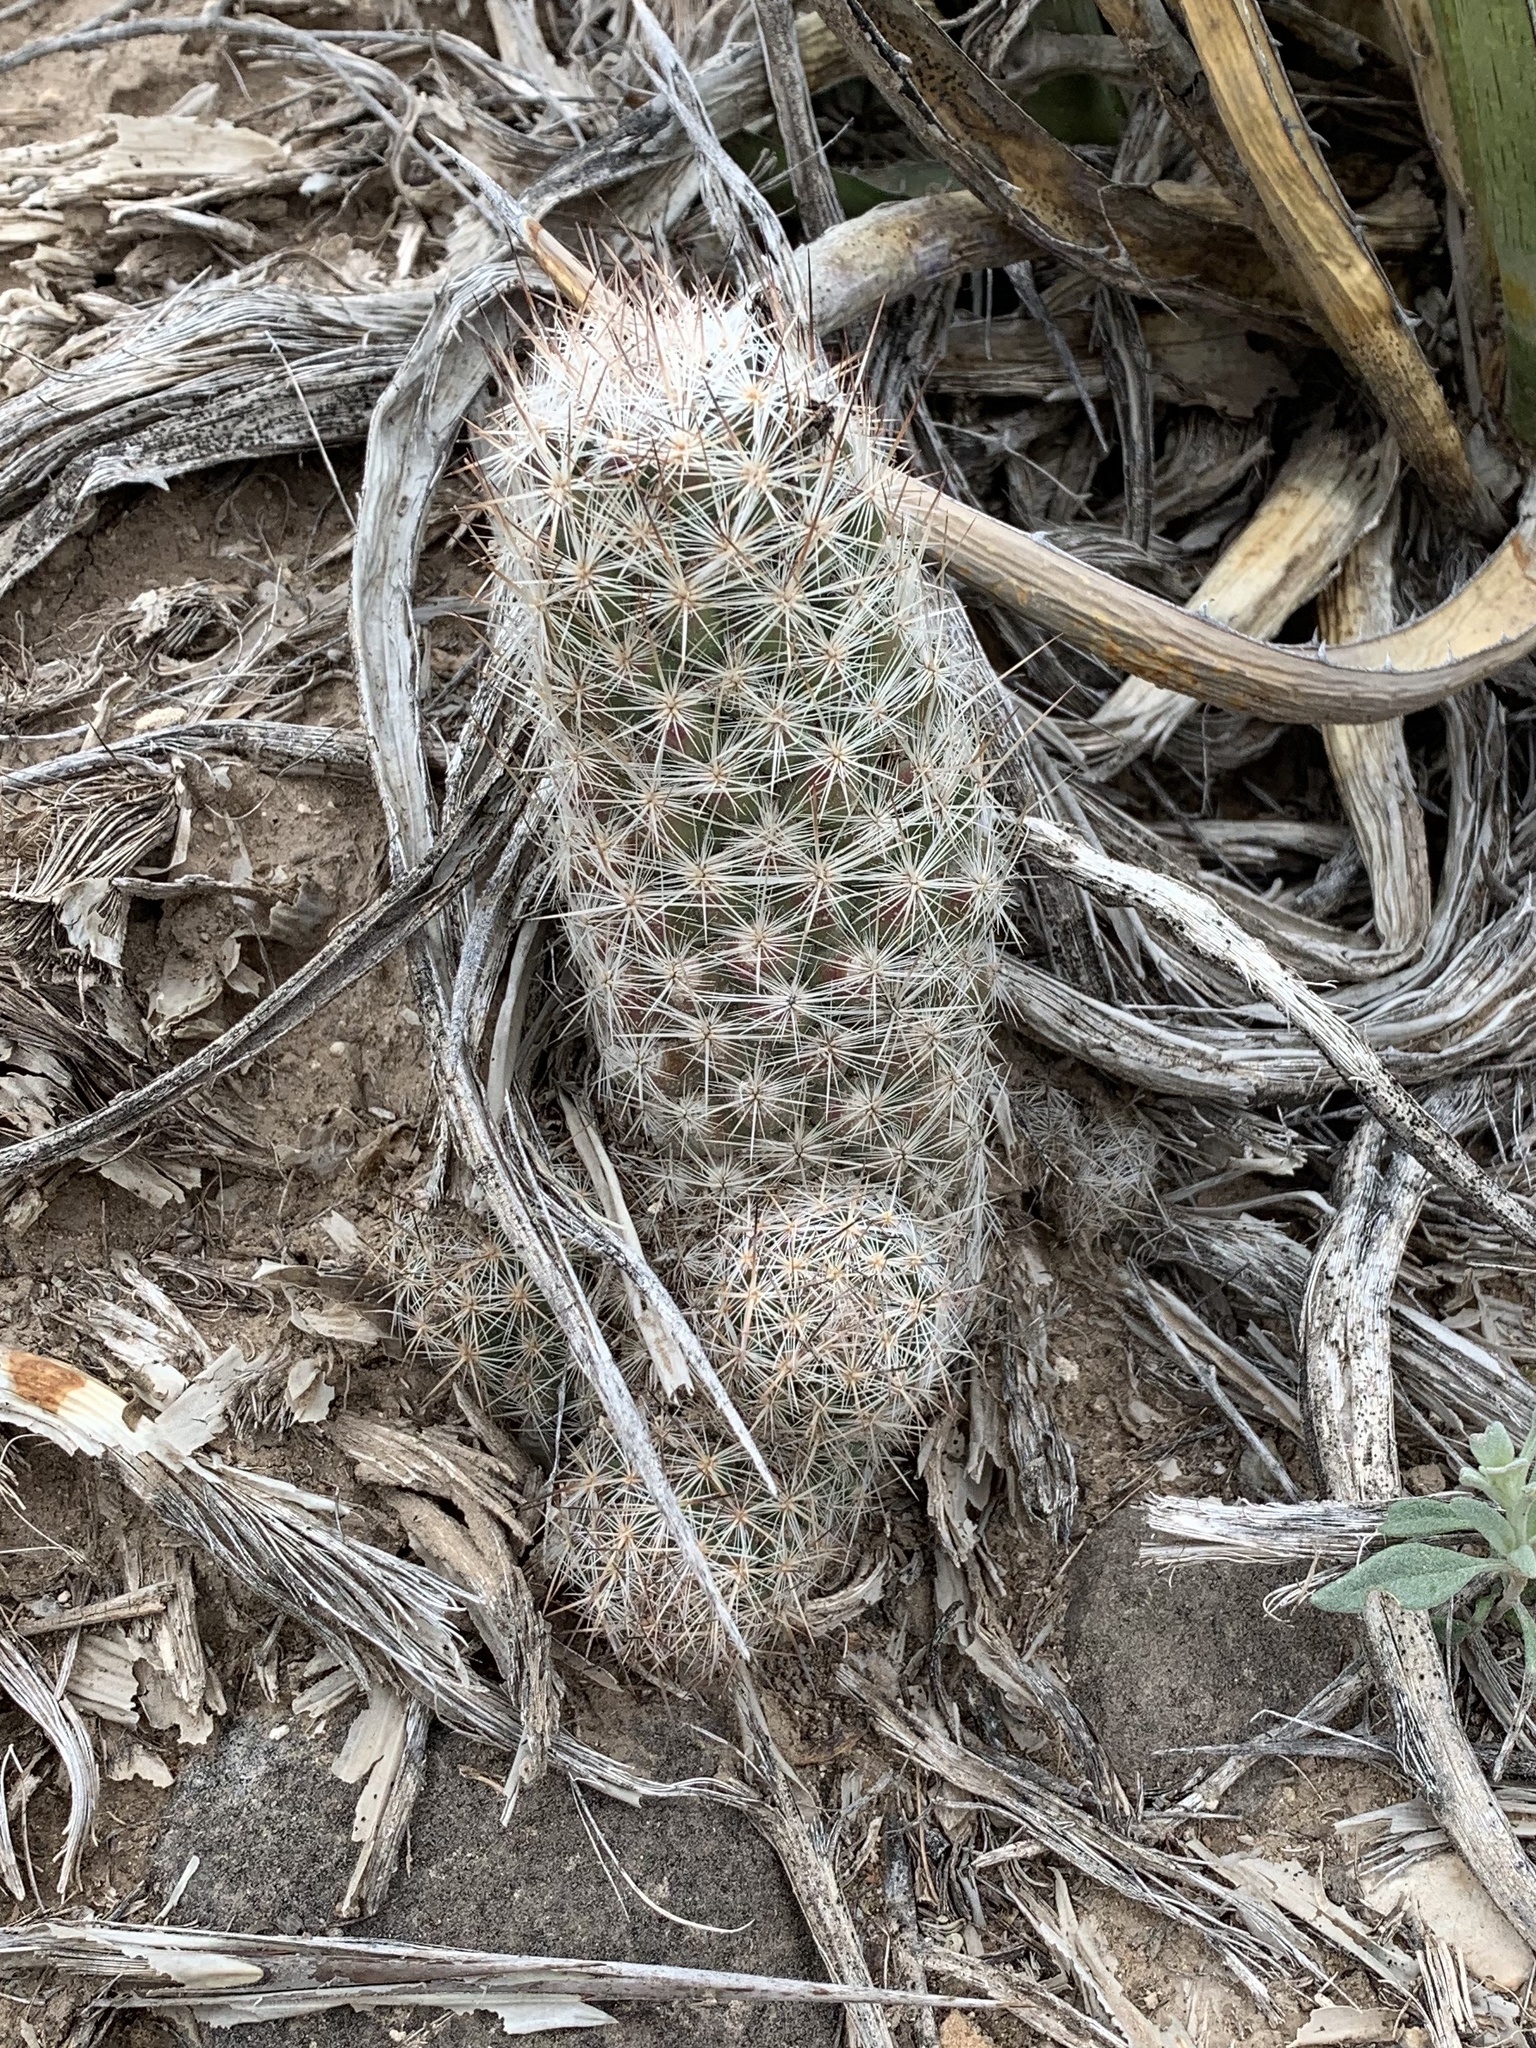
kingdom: Plantae
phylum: Tracheophyta
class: Magnoliopsida
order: Caryophyllales
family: Cactaceae
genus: Pelecyphora
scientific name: Pelecyphora tuberculosa
